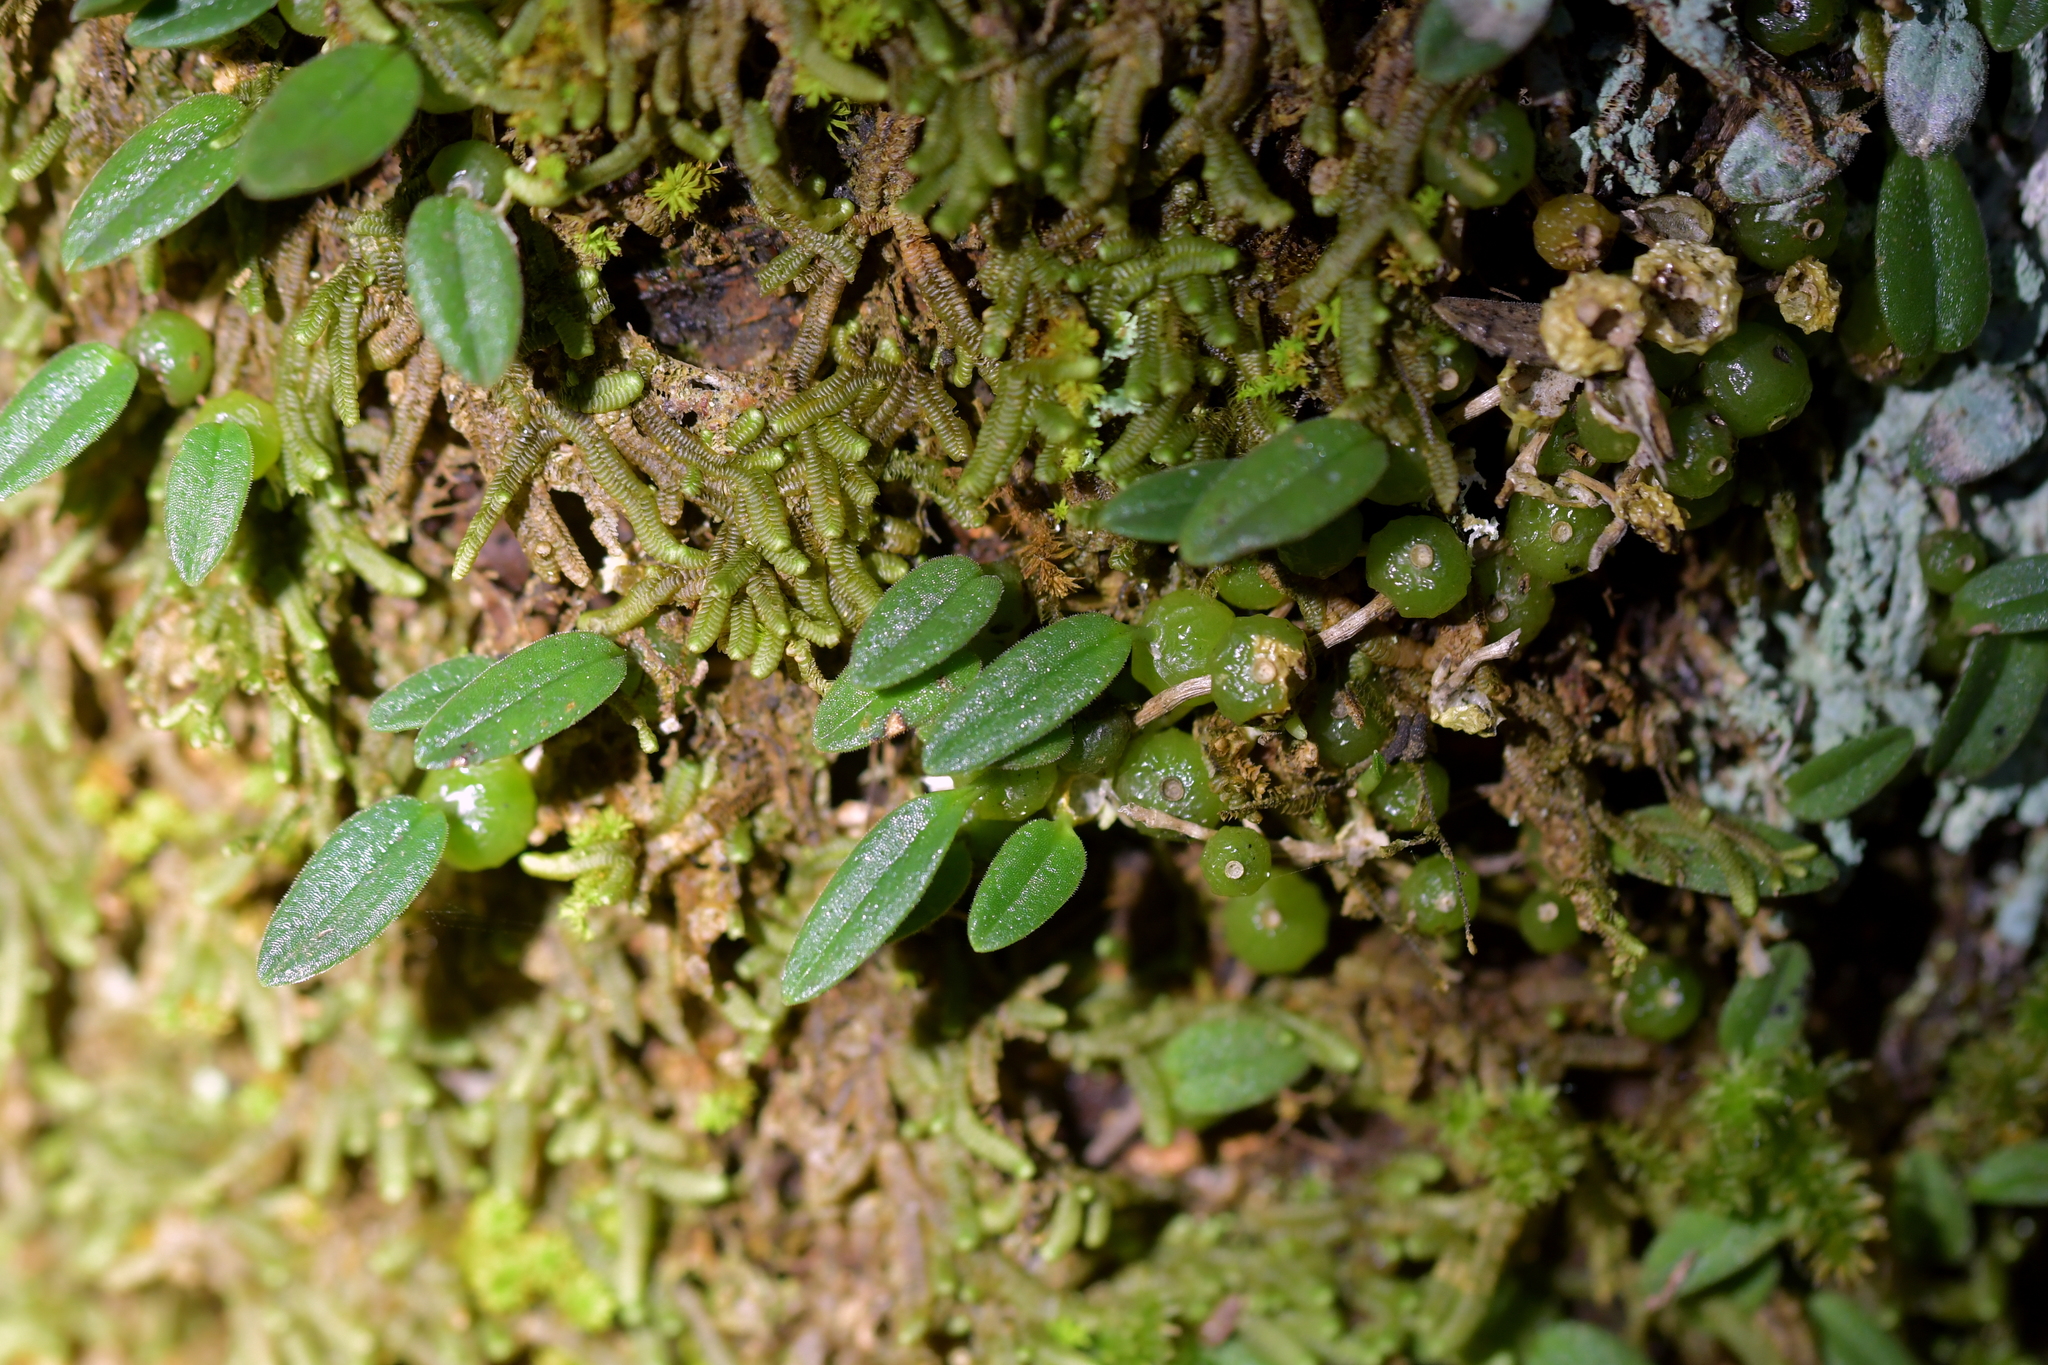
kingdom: Plantae
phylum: Tracheophyta
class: Liliopsida
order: Asparagales
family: Orchidaceae
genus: Bulbophyllum
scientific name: Bulbophyllum pygmaeum
